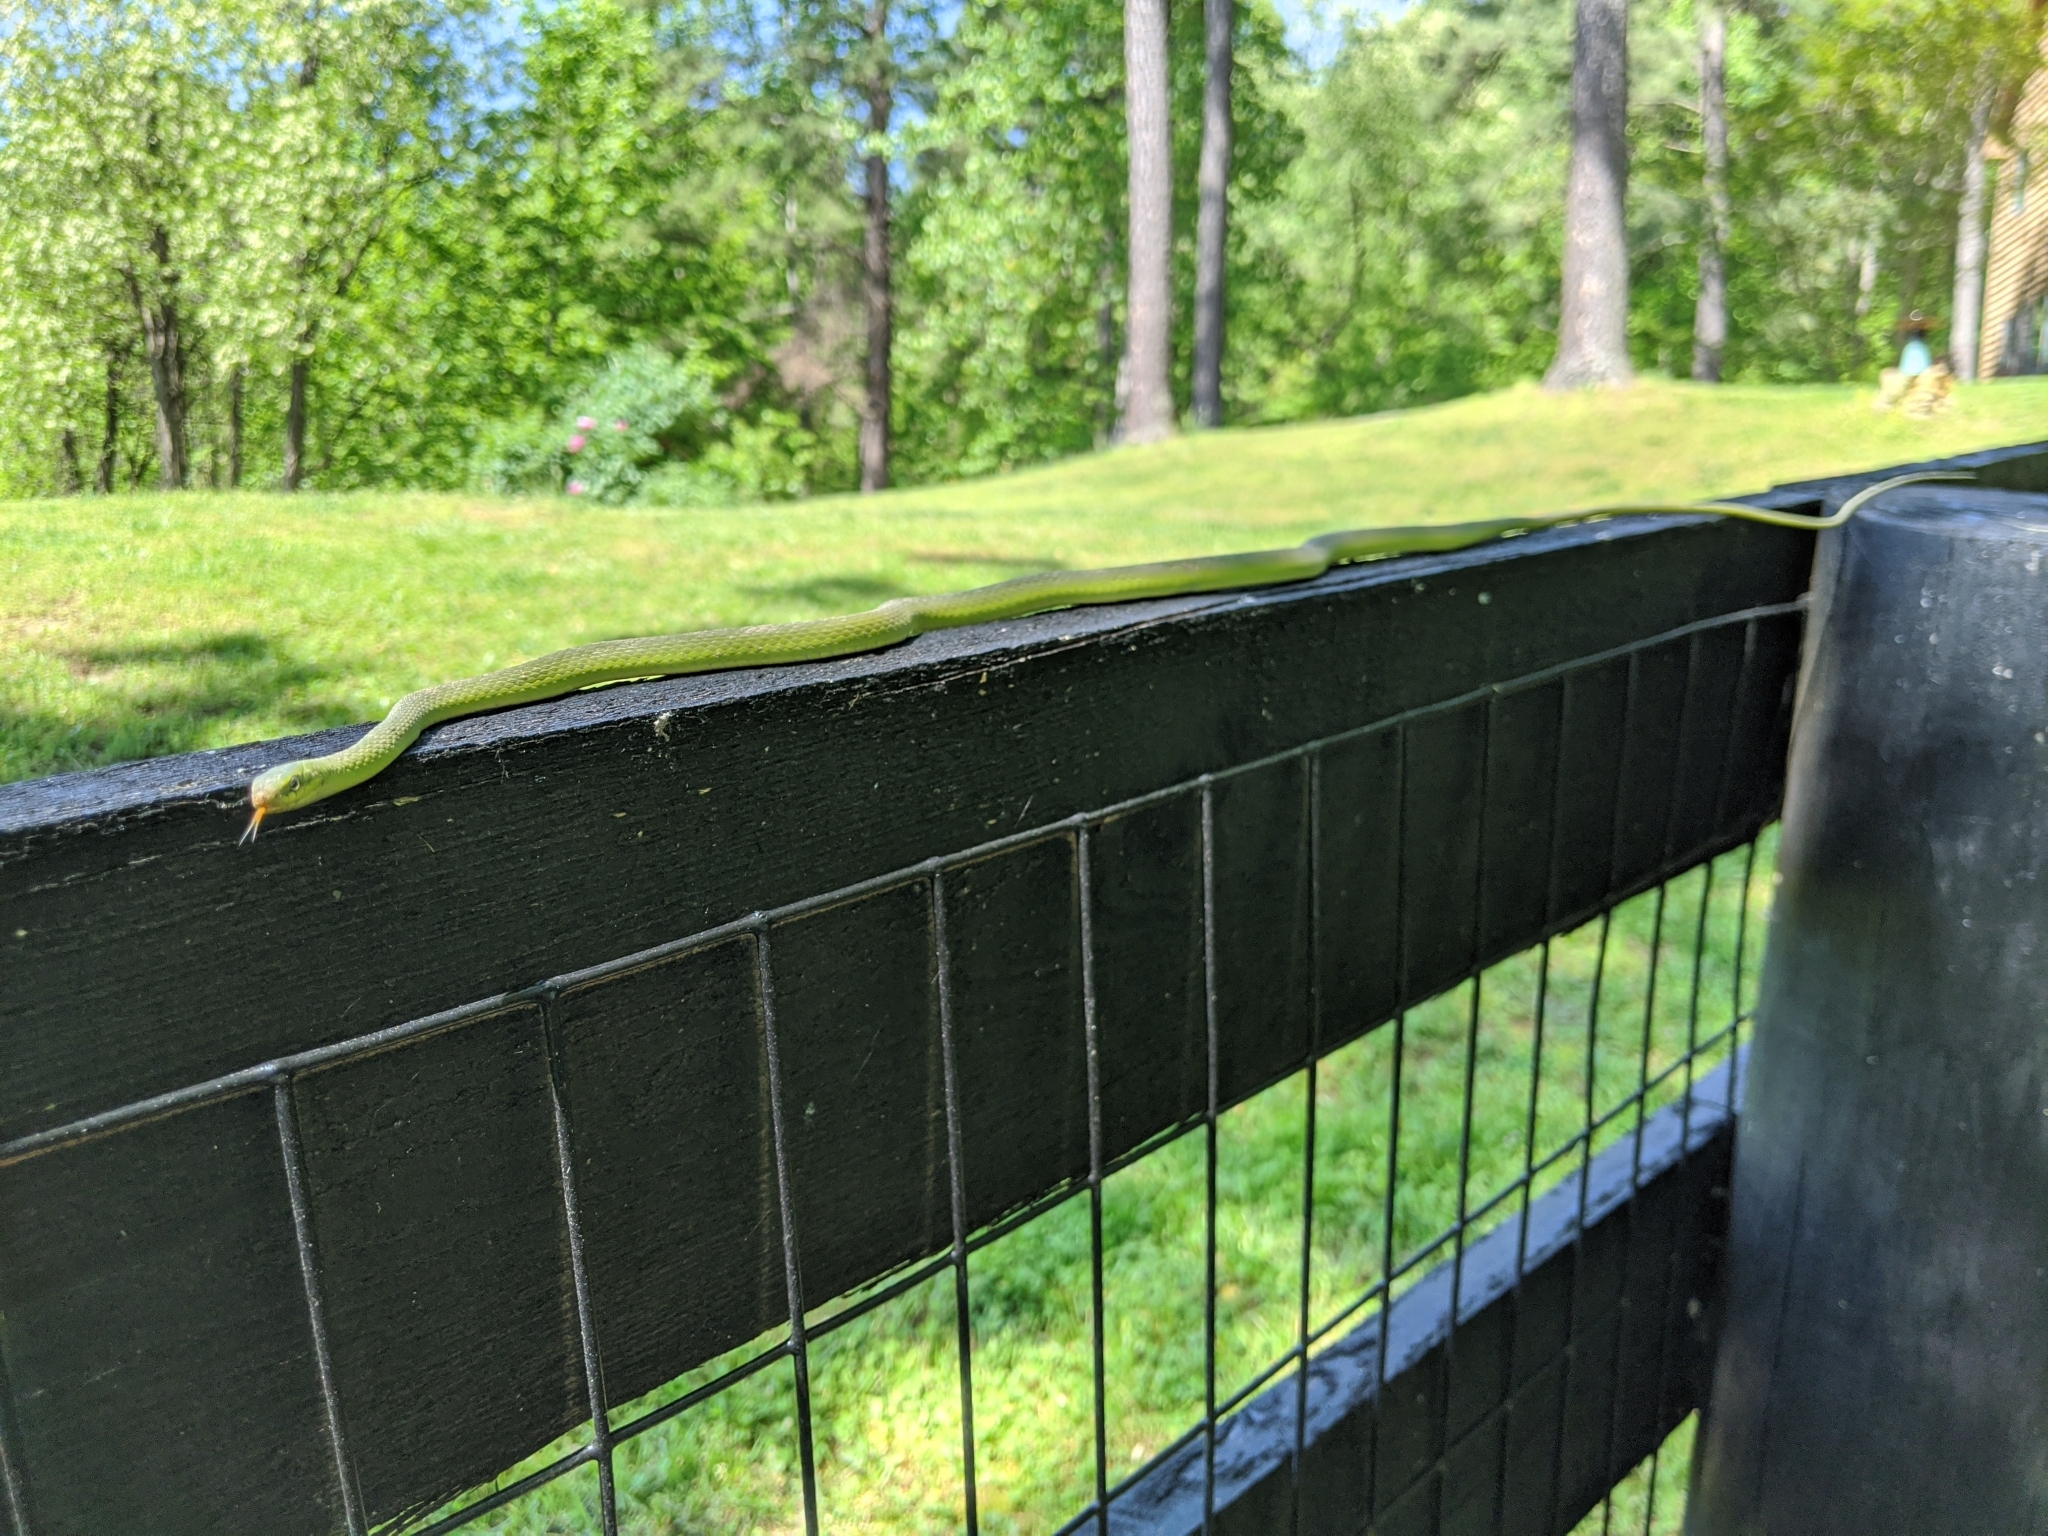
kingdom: Animalia
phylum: Chordata
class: Squamata
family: Colubridae
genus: Opheodrys
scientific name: Opheodrys aestivus
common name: Rough greensnake
